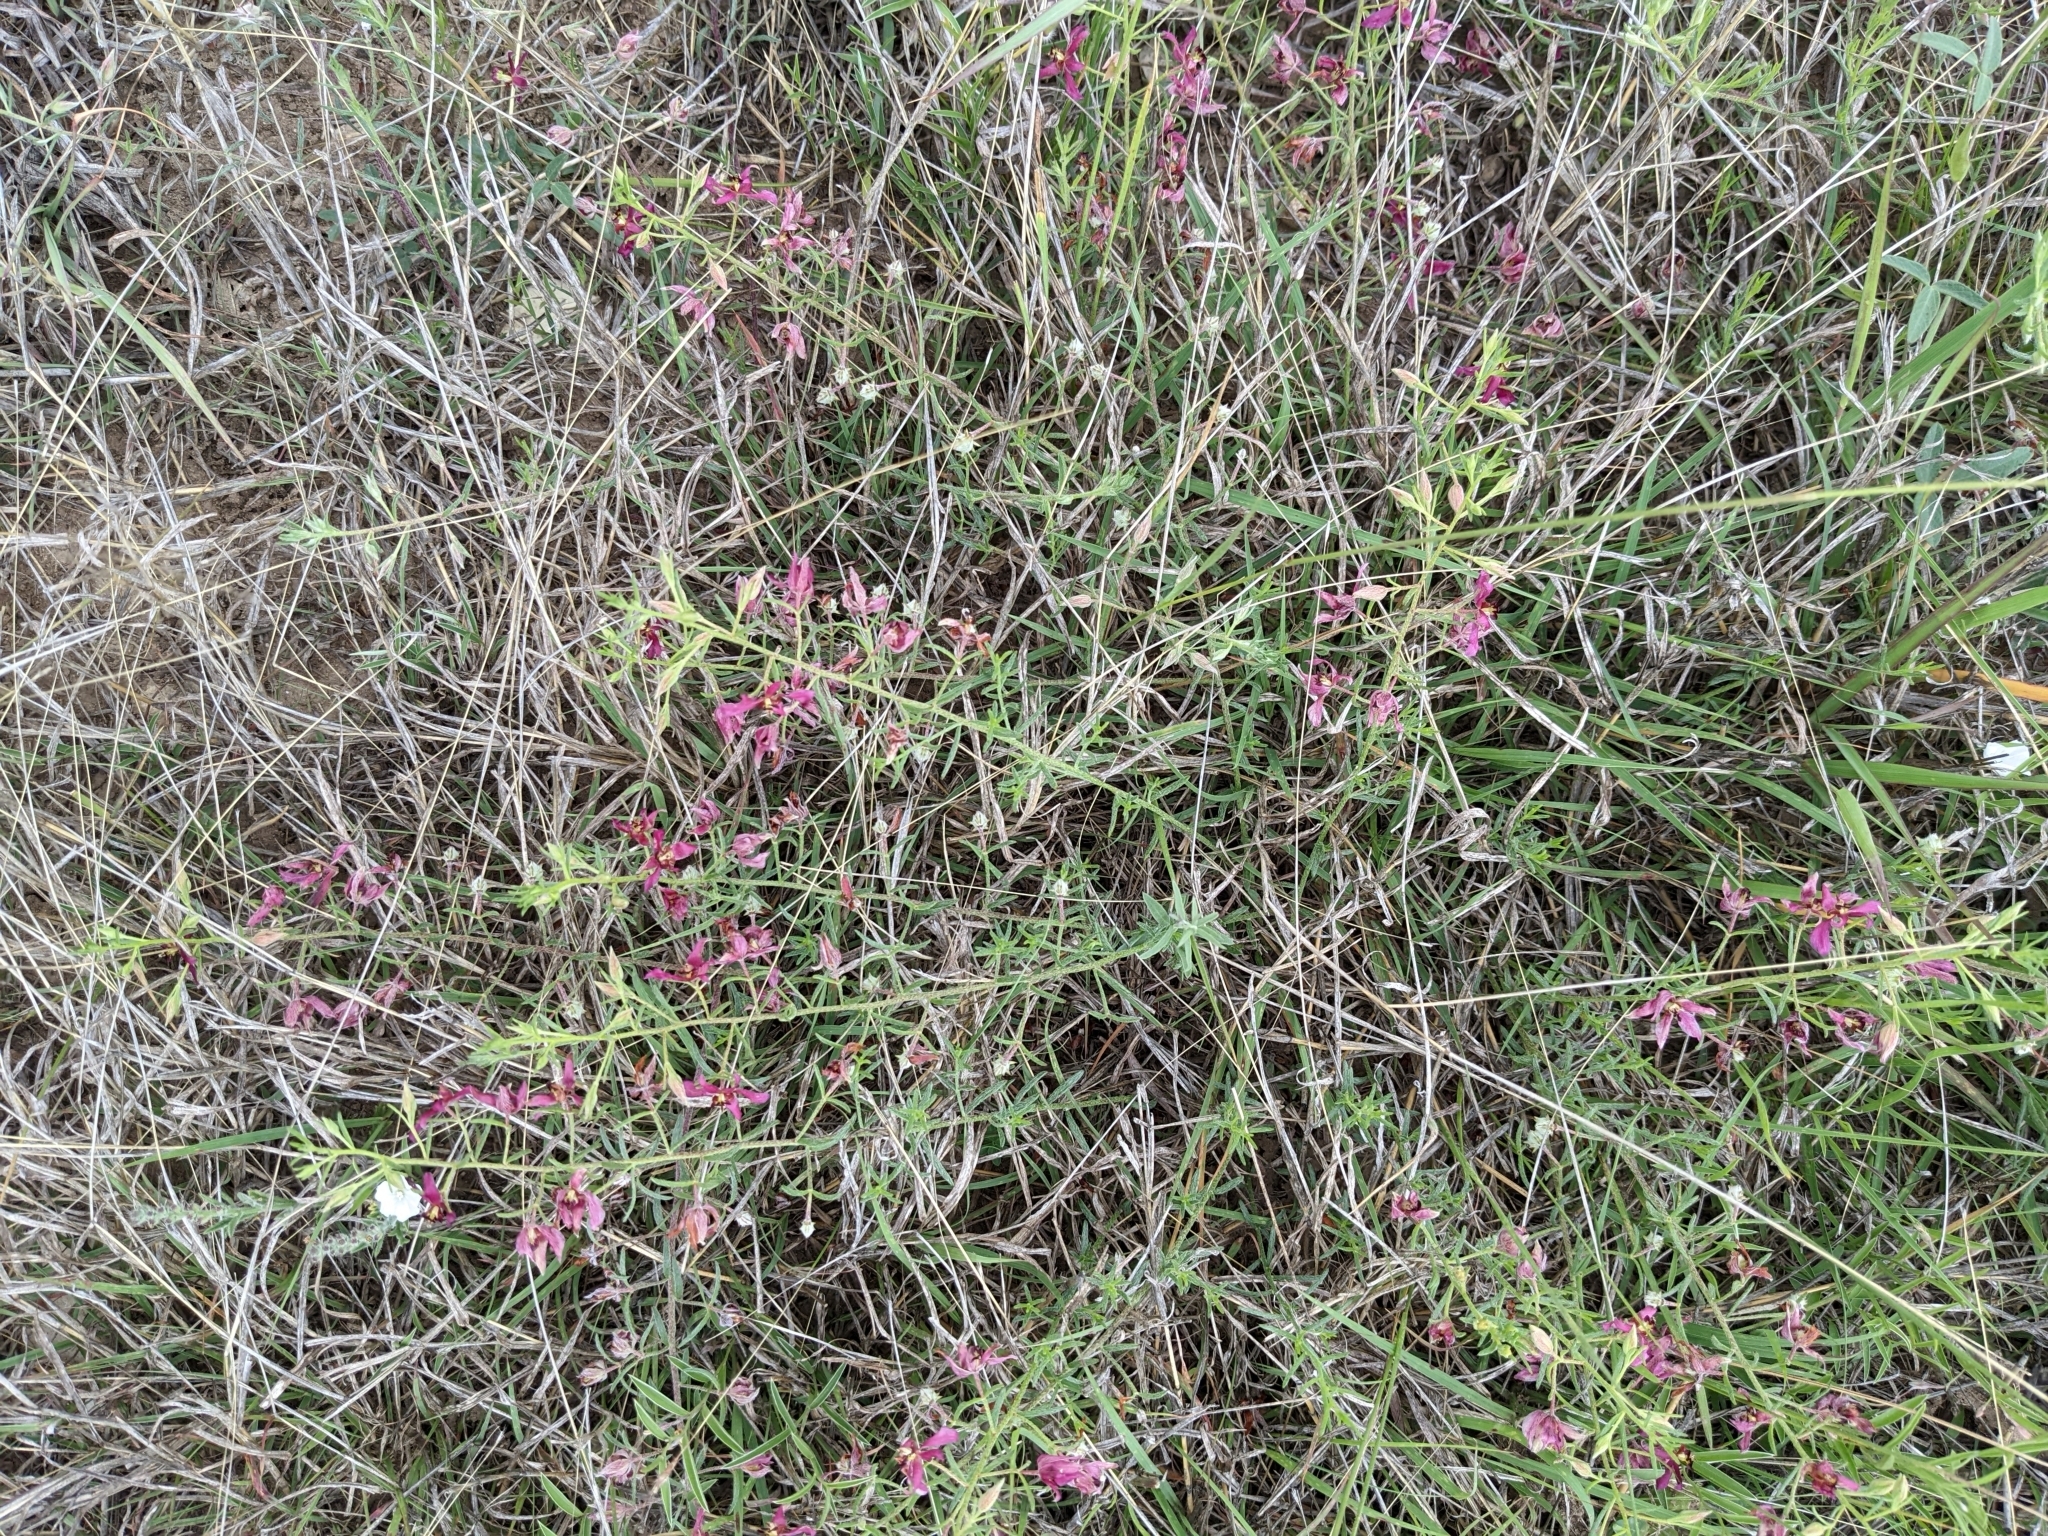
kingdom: Plantae
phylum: Tracheophyta
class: Magnoliopsida
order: Zygophyllales
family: Krameriaceae
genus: Krameria
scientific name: Krameria lanceolata
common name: Ratany
